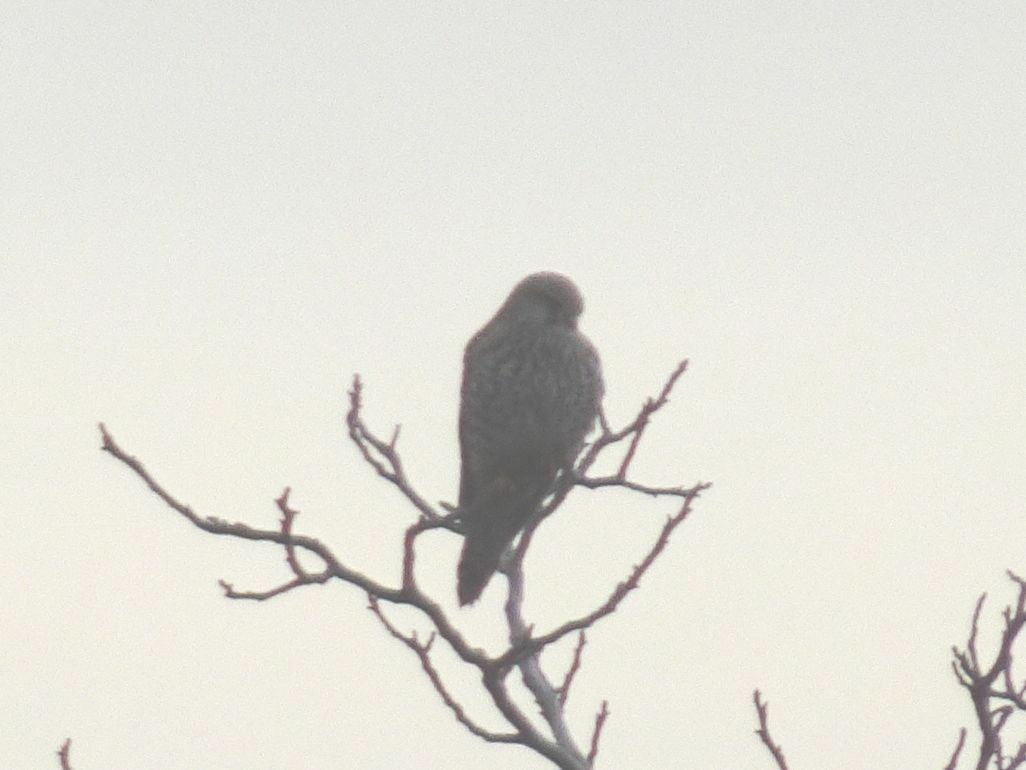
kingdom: Animalia
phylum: Chordata
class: Aves
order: Falconiformes
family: Falconidae
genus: Falco
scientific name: Falco tinnunculus
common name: Common kestrel
